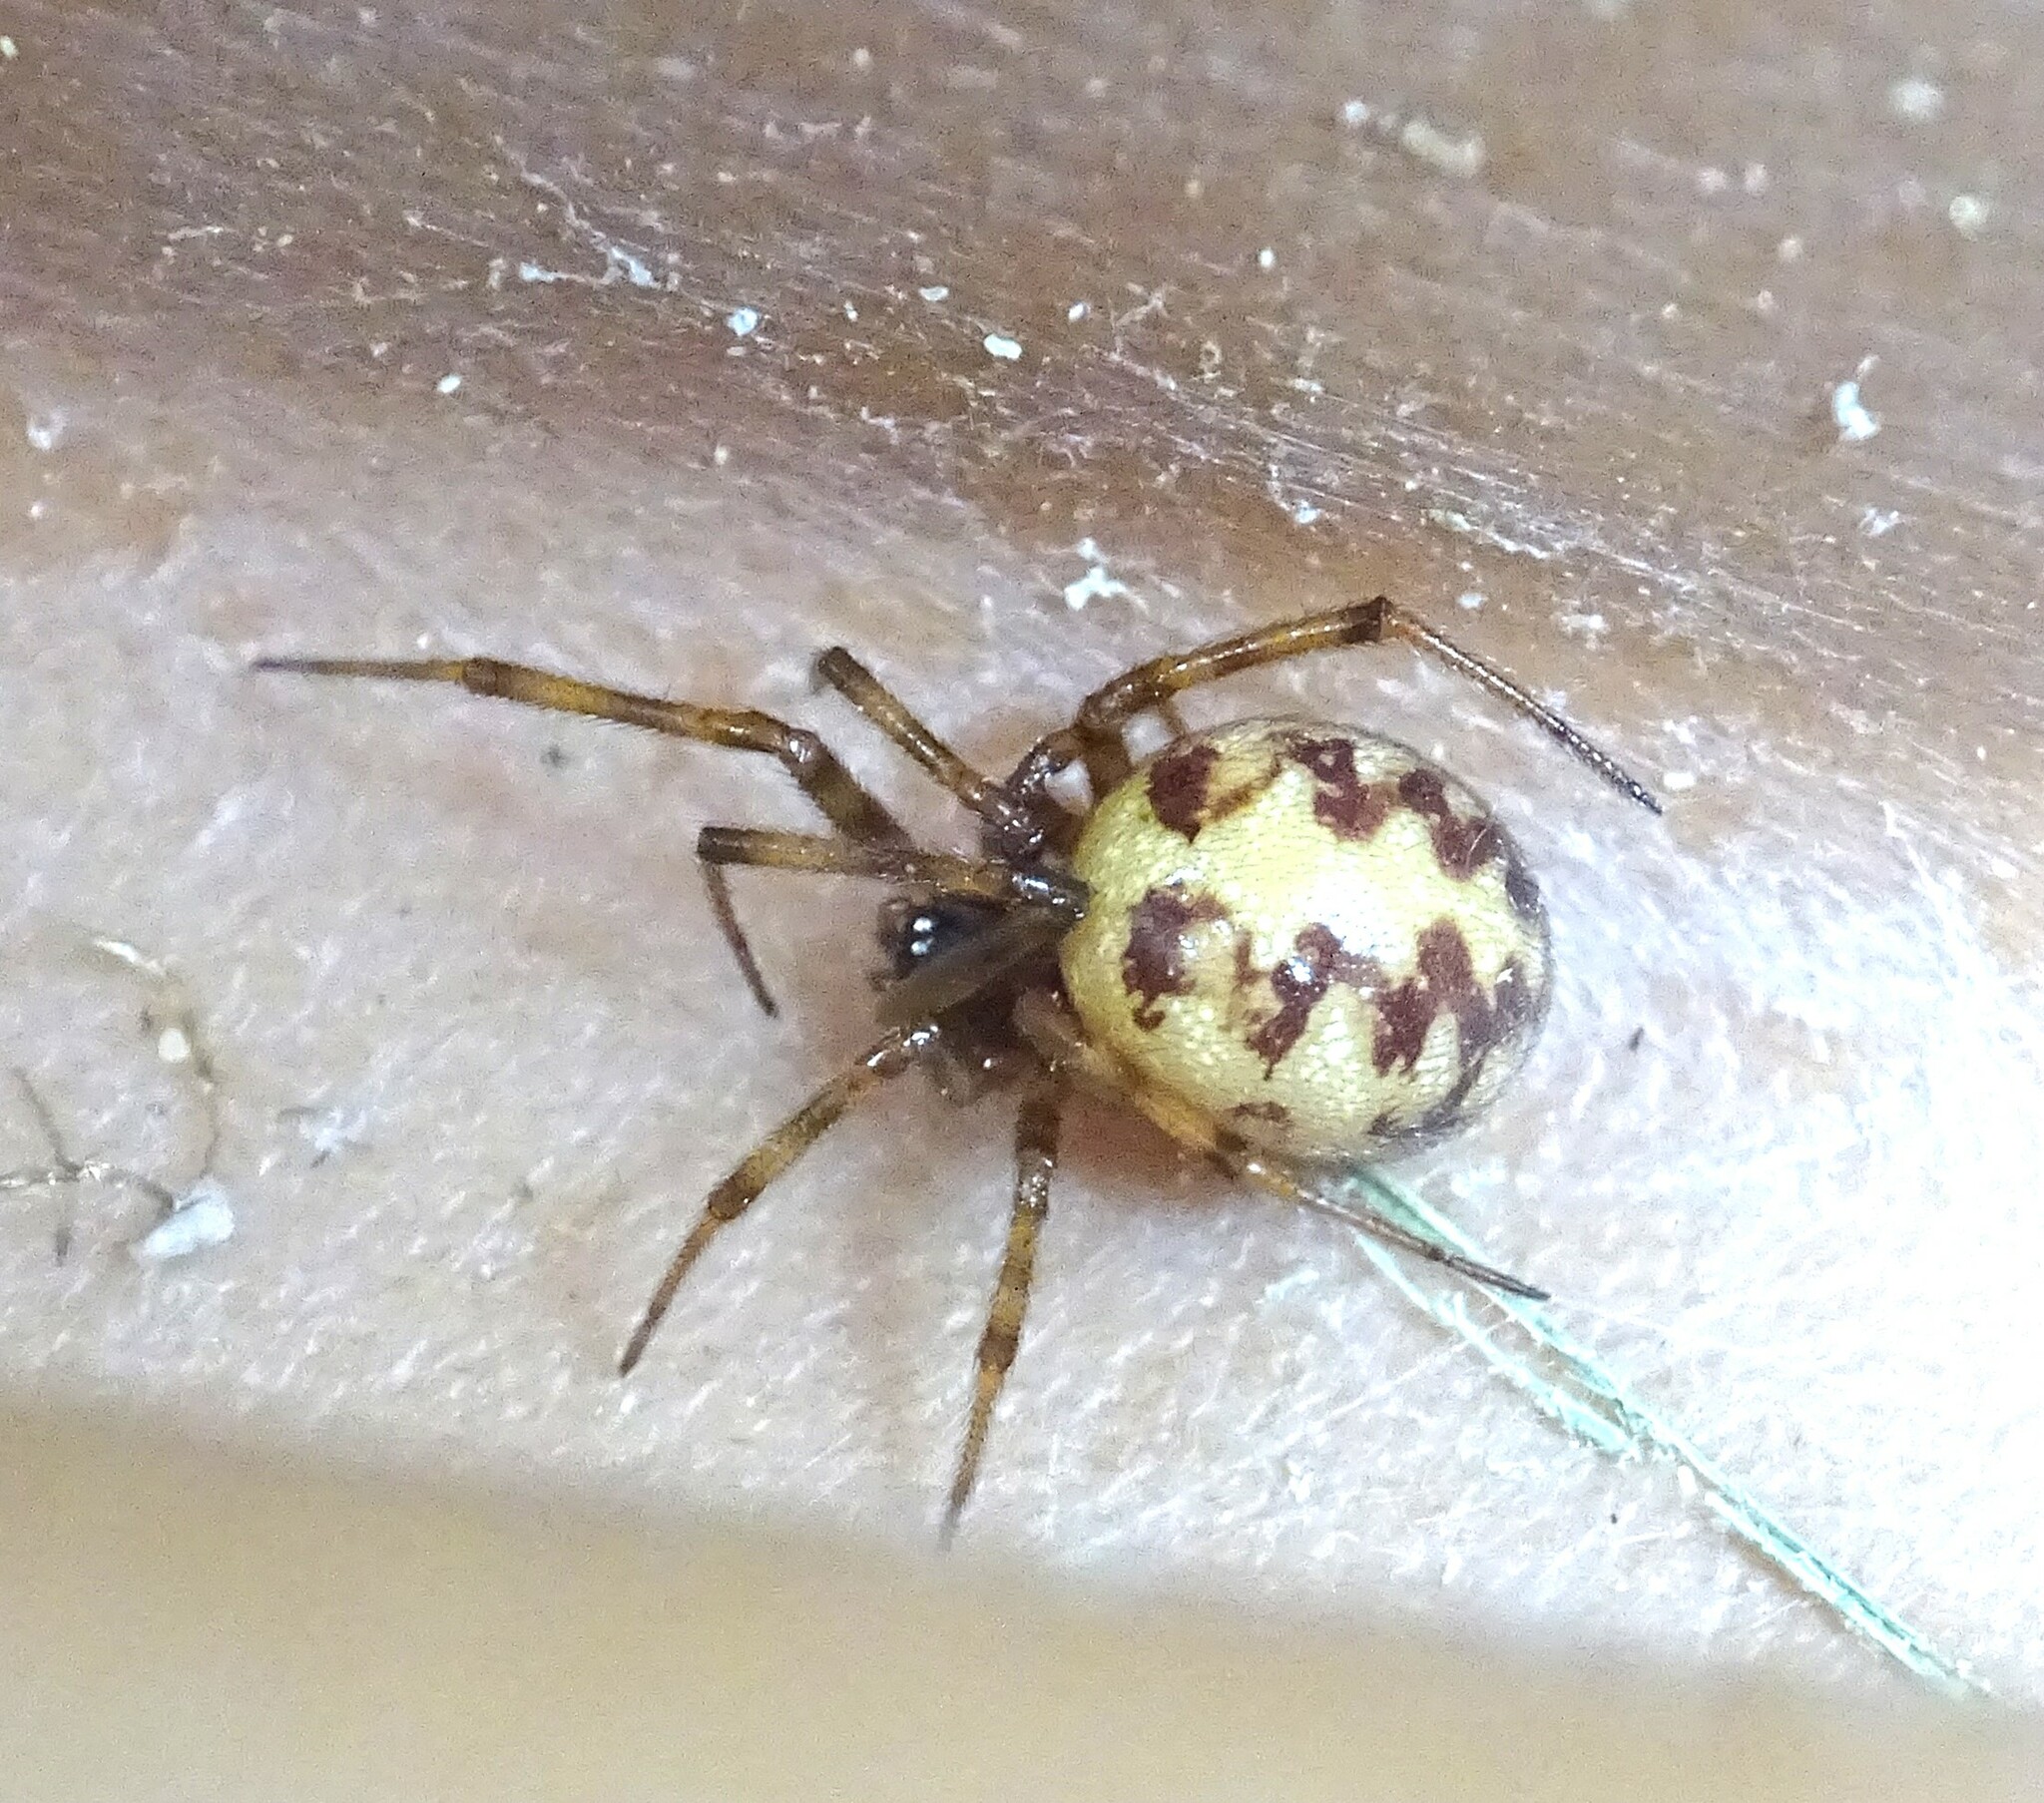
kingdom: Animalia
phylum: Arthropoda
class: Arachnida
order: Araneae
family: Theridiidae
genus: Steatoda
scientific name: Steatoda triangulosa
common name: Triangulate bud spider
